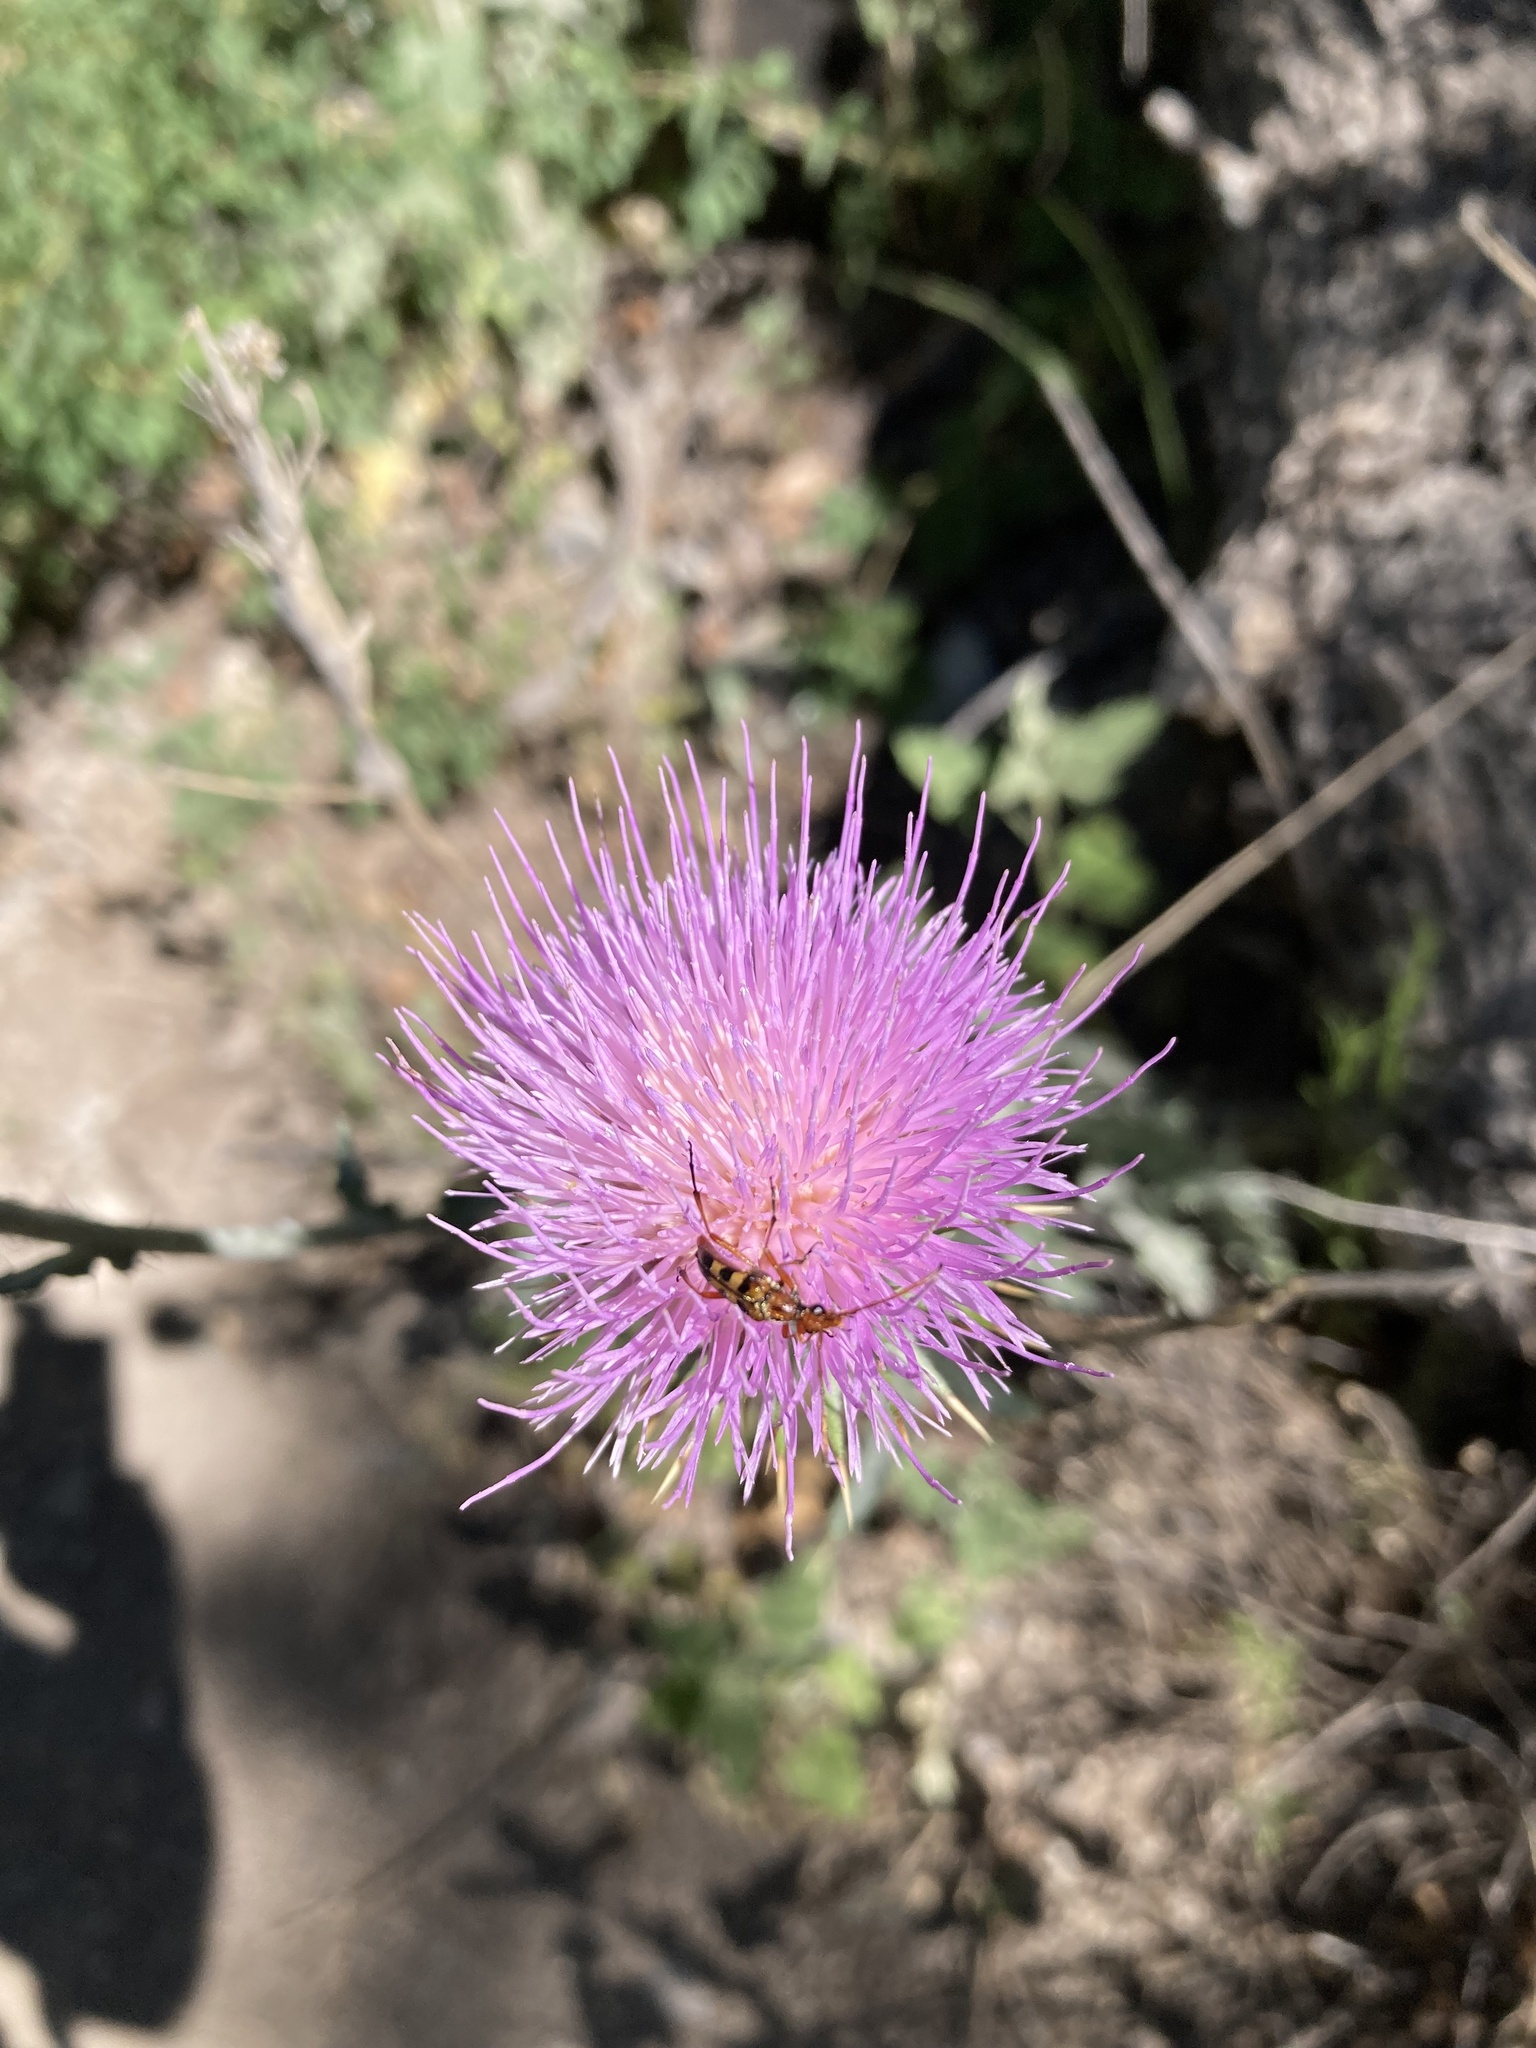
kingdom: Animalia
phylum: Arthropoda
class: Insecta
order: Coleoptera
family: Cerambycidae
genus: Strangalia
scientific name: Strangalia sexnotata
